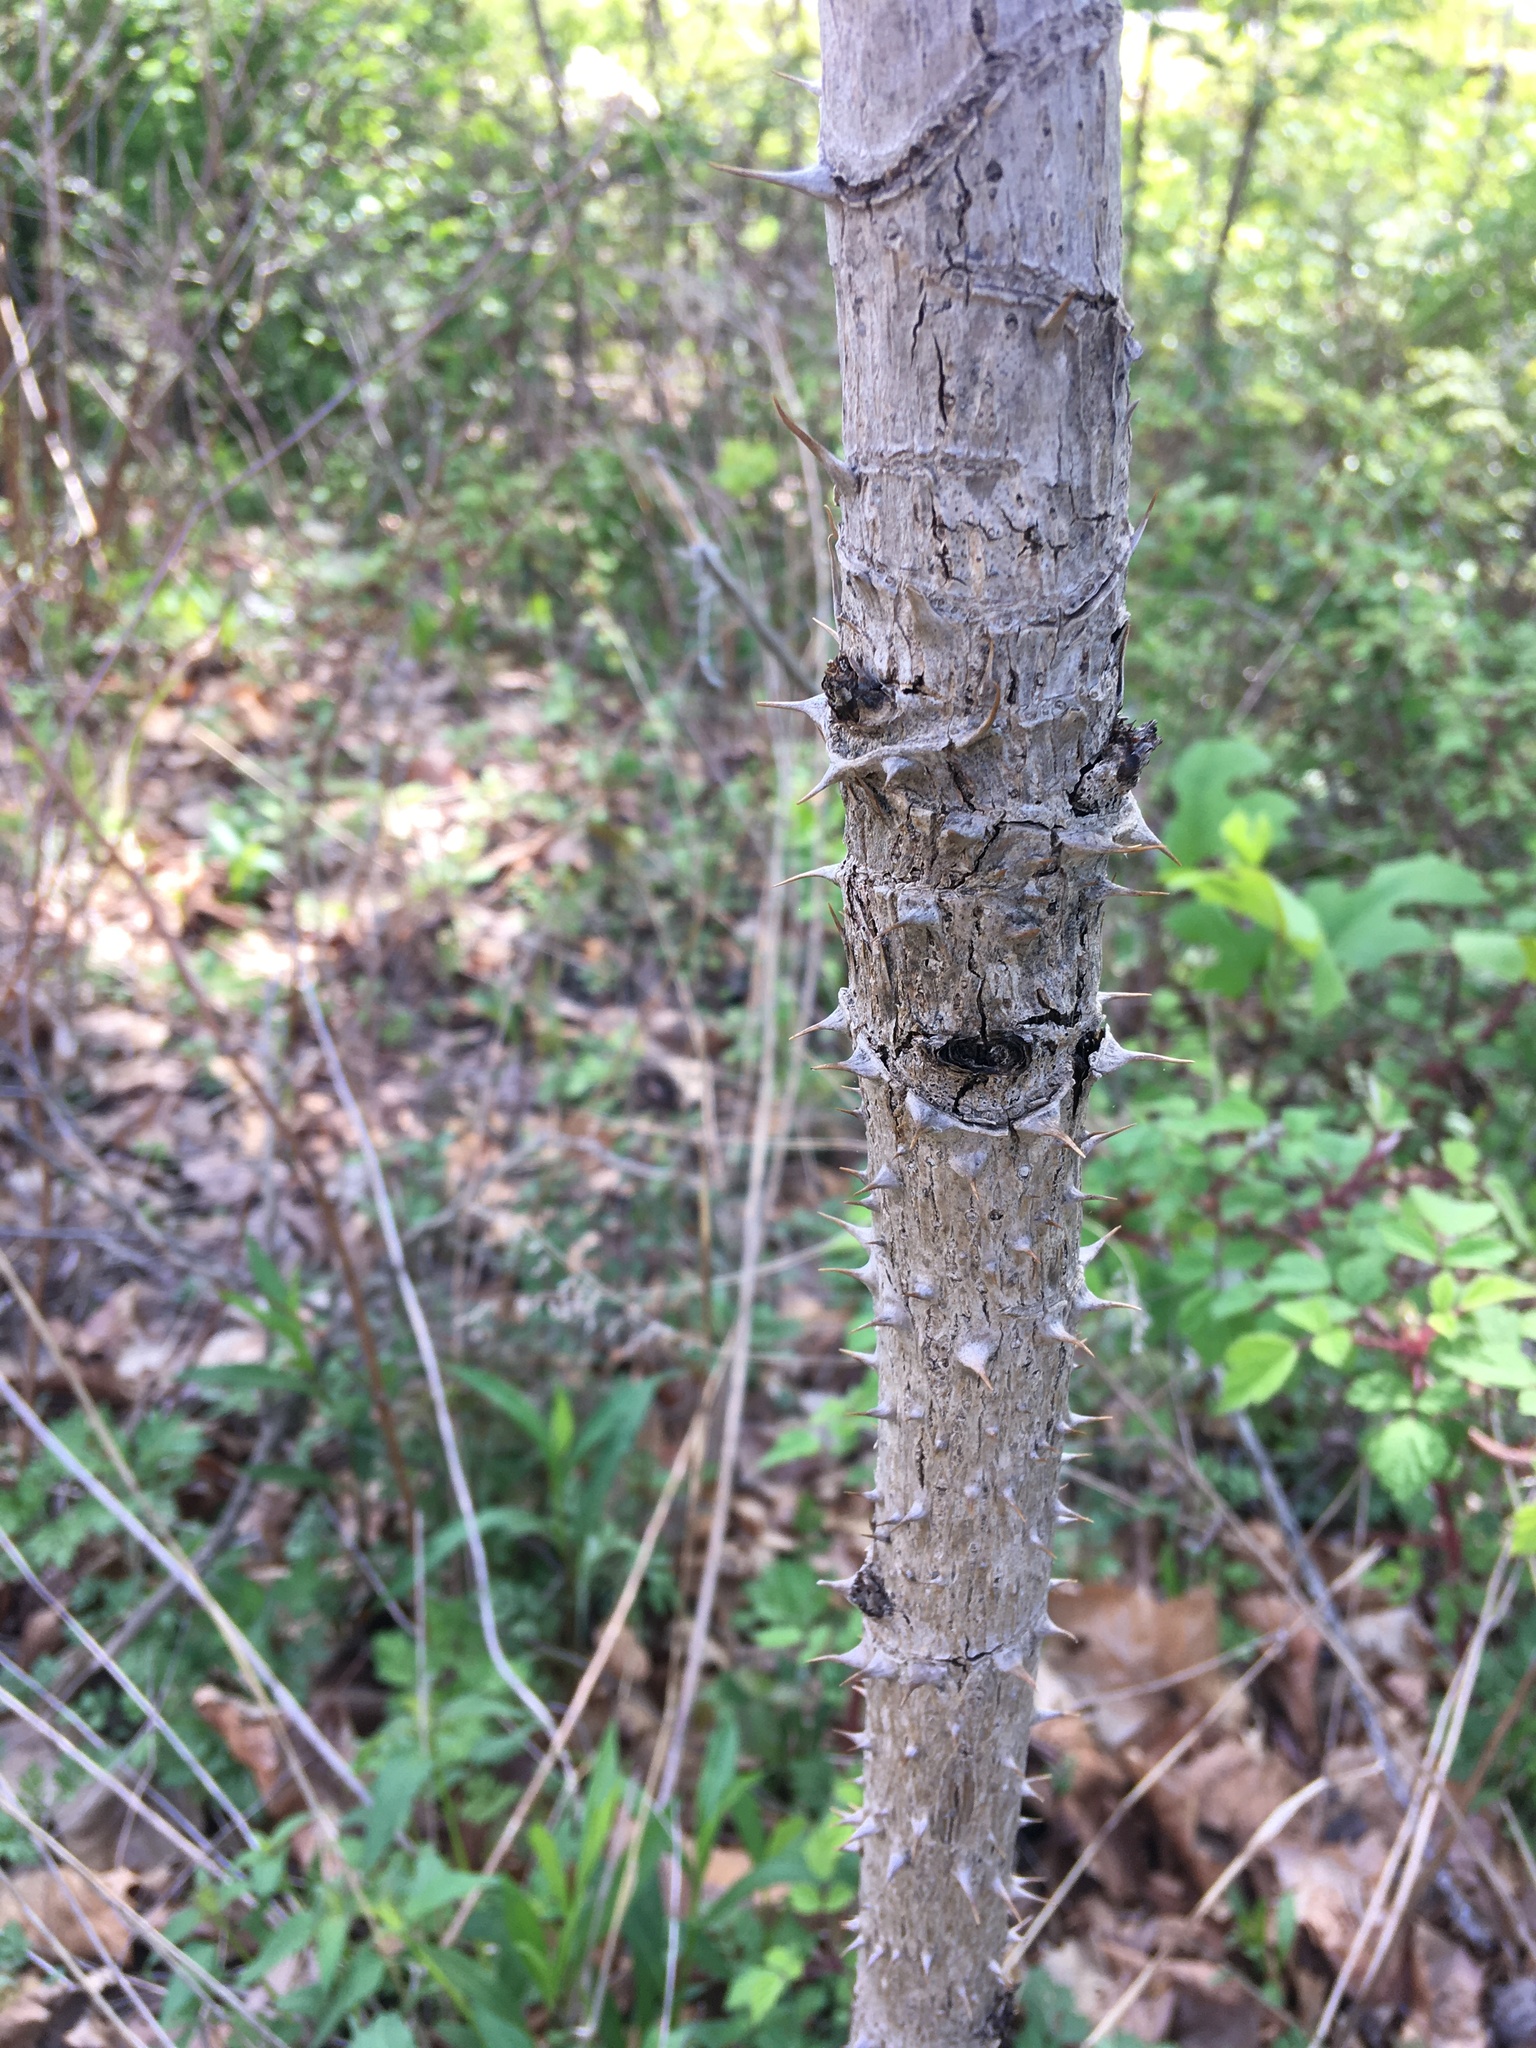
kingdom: Plantae
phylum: Tracheophyta
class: Magnoliopsida
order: Apiales
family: Araliaceae
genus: Aralia
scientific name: Aralia elata
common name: Japanese angelica-tree
